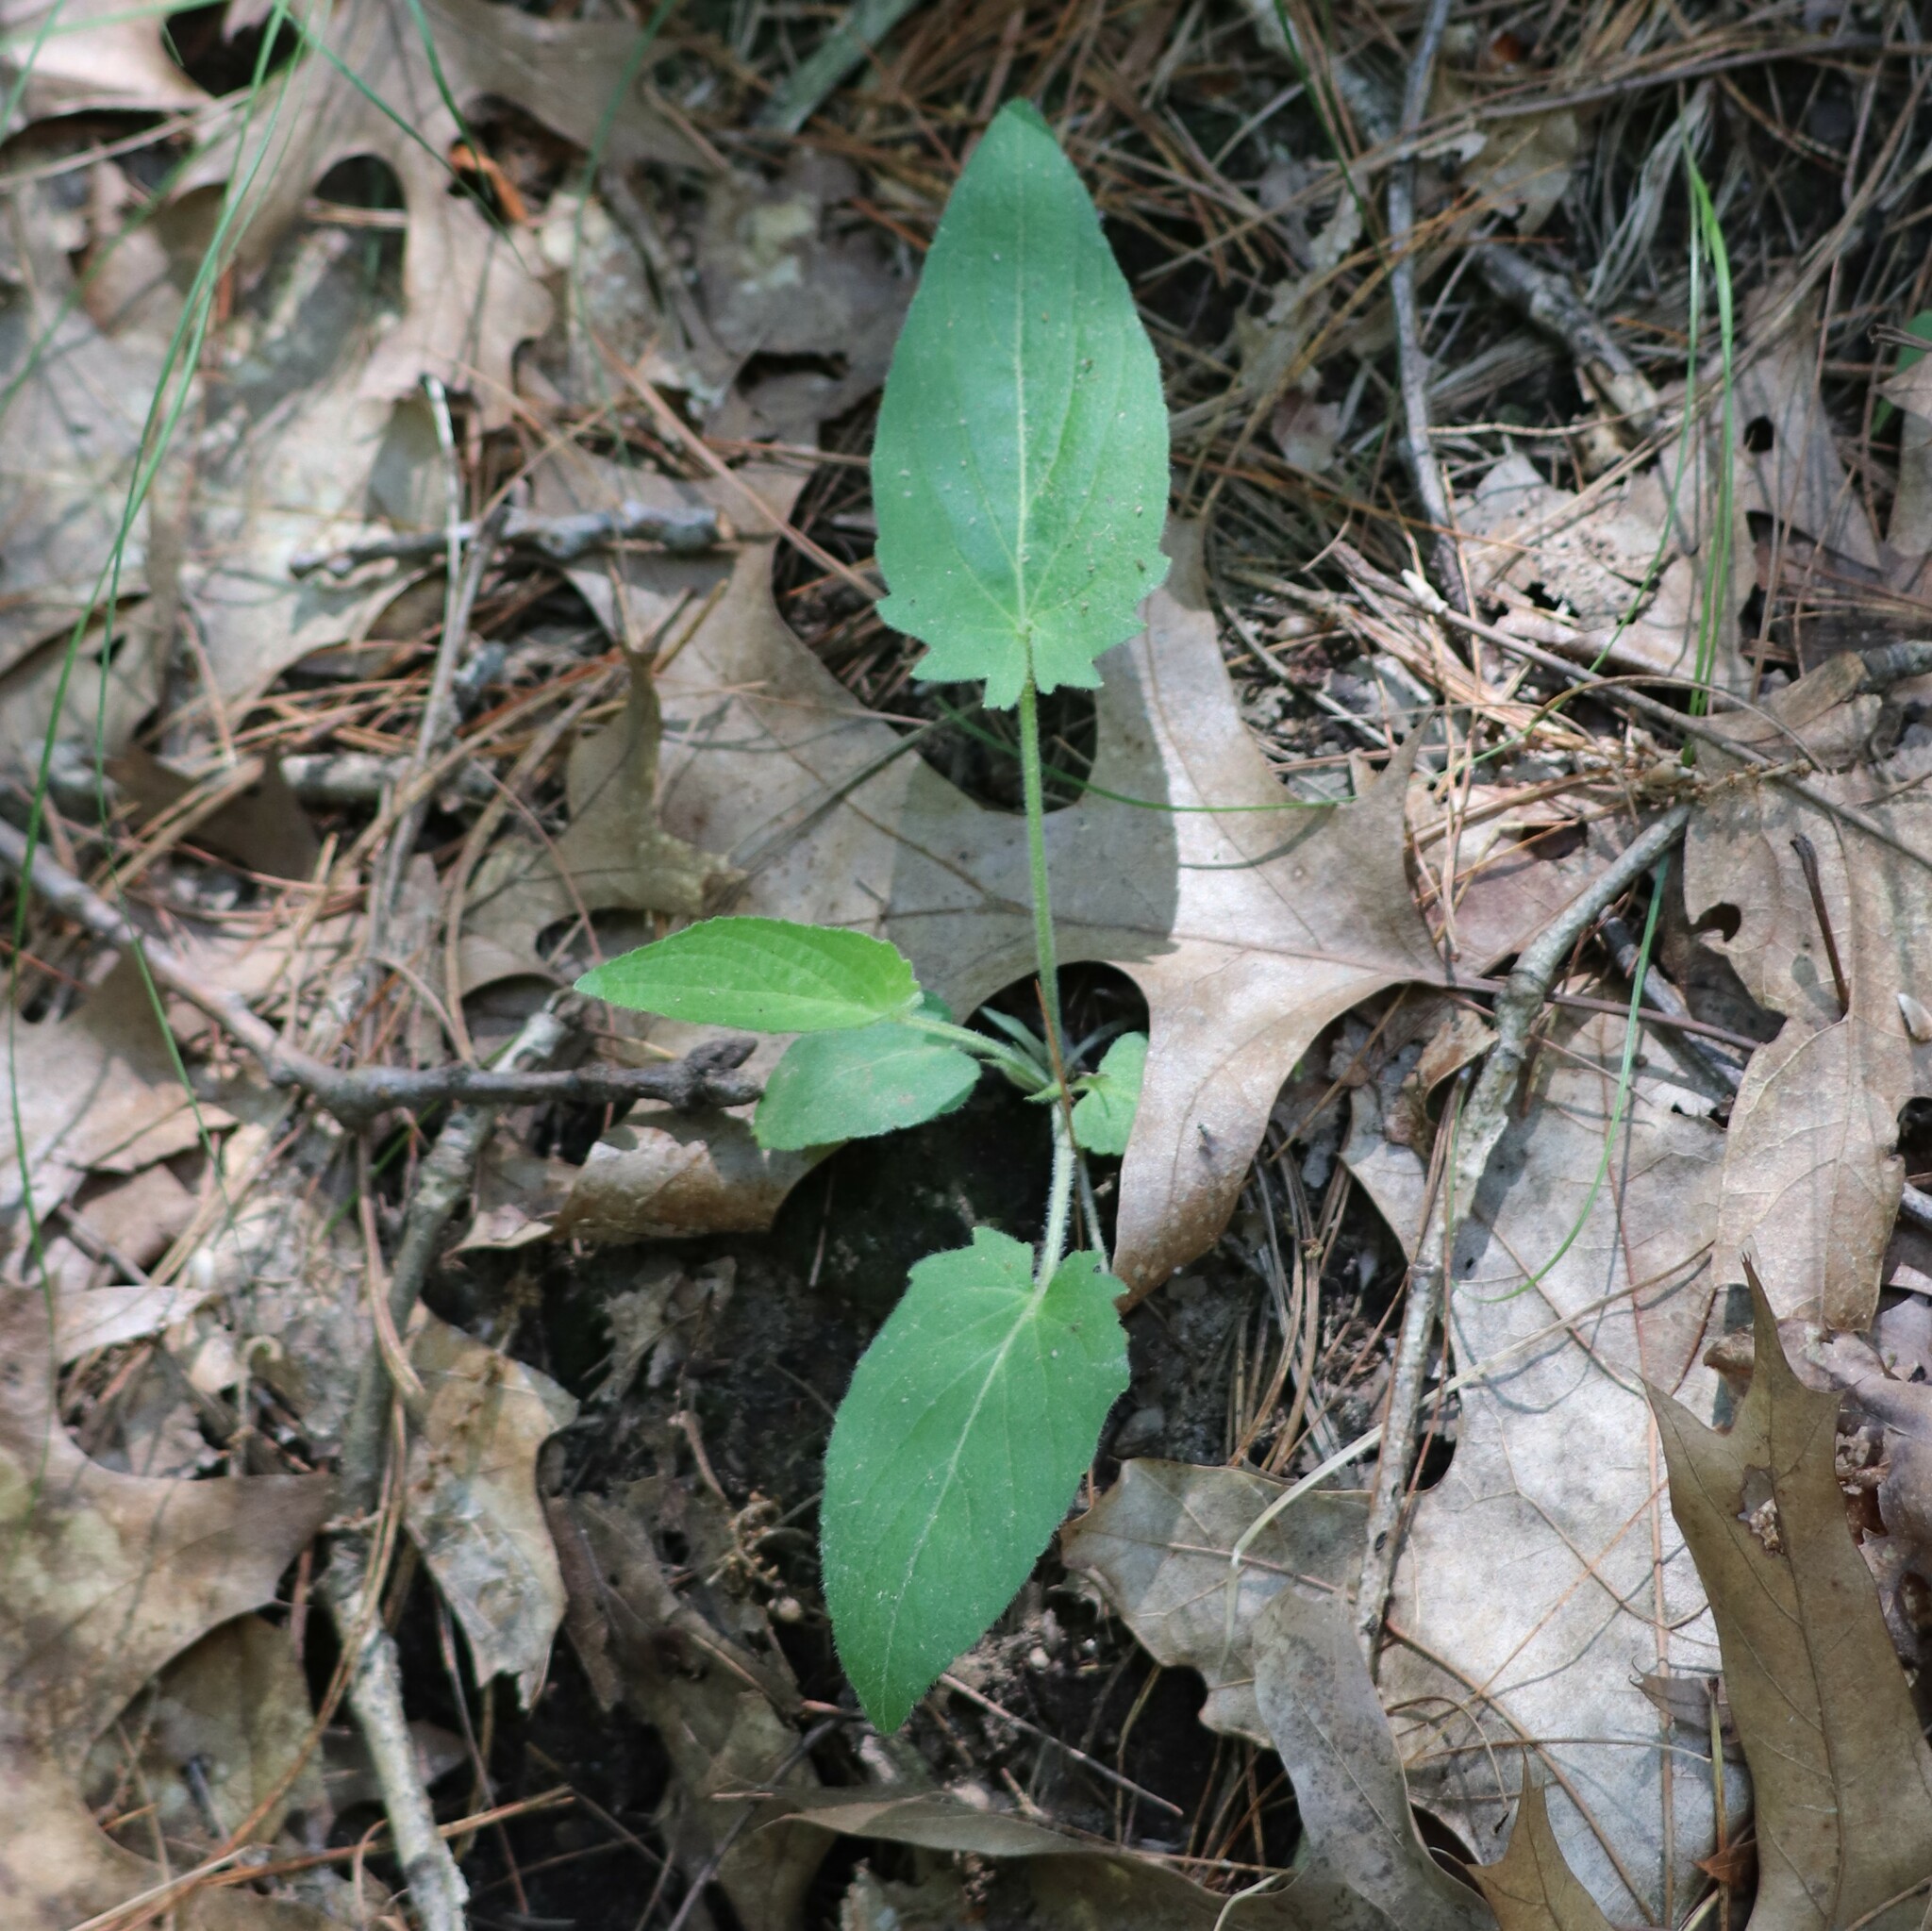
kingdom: Plantae
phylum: Tracheophyta
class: Magnoliopsida
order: Malpighiales
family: Violaceae
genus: Viola
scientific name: Viola fimbriatula
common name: Sand violet
